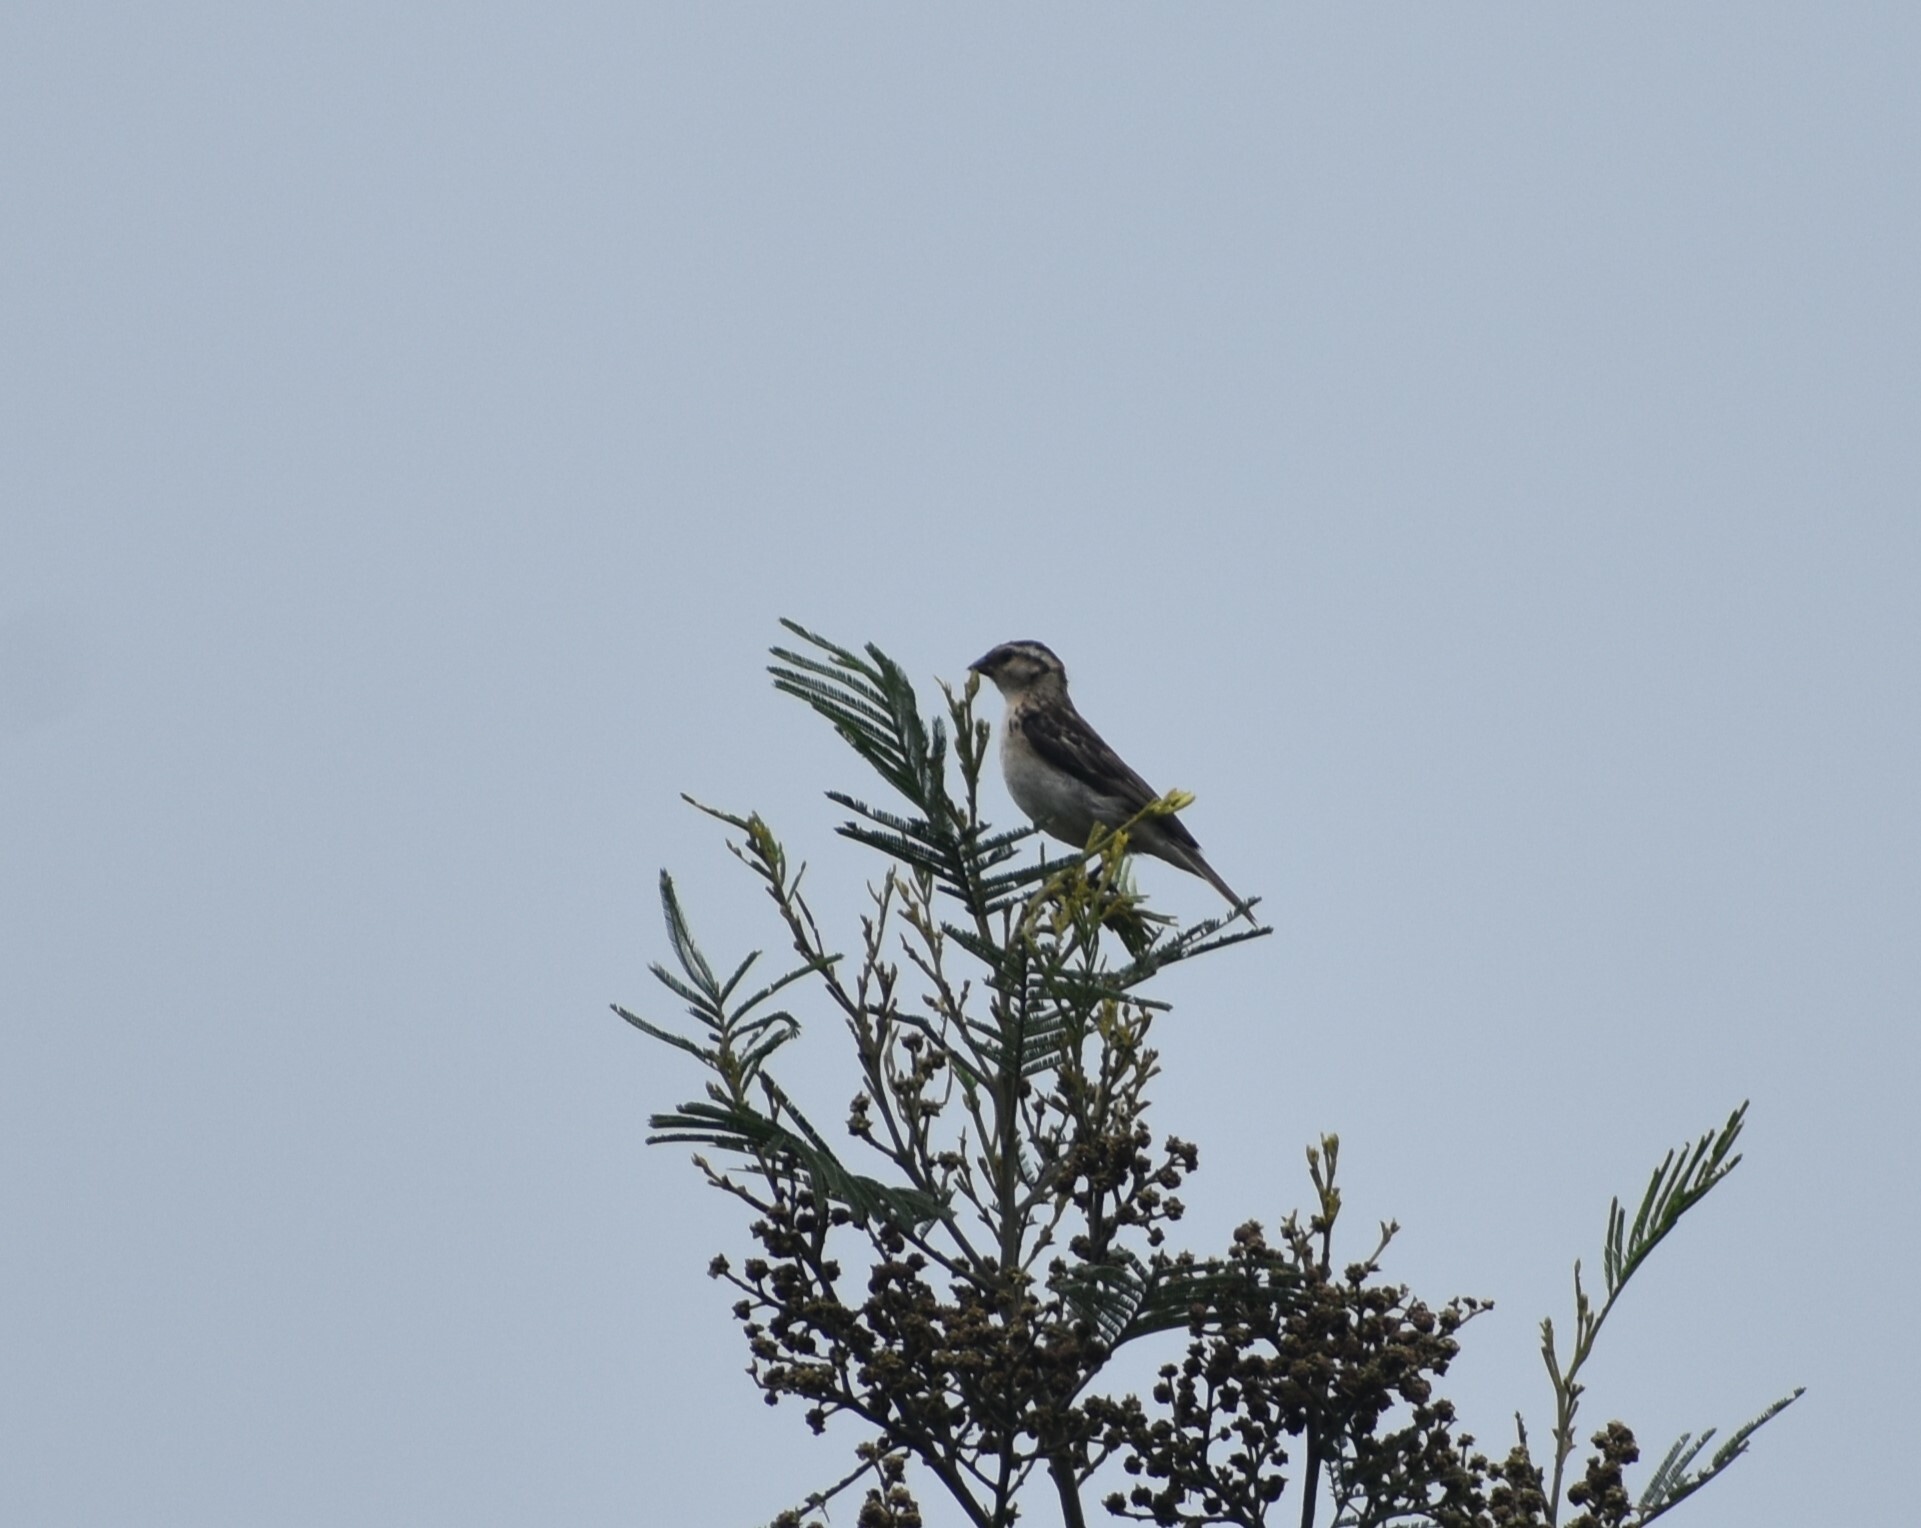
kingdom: Animalia
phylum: Chordata
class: Aves
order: Passeriformes
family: Viduidae
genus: Vidua
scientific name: Vidua macroura
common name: Pin-tailed whydah
